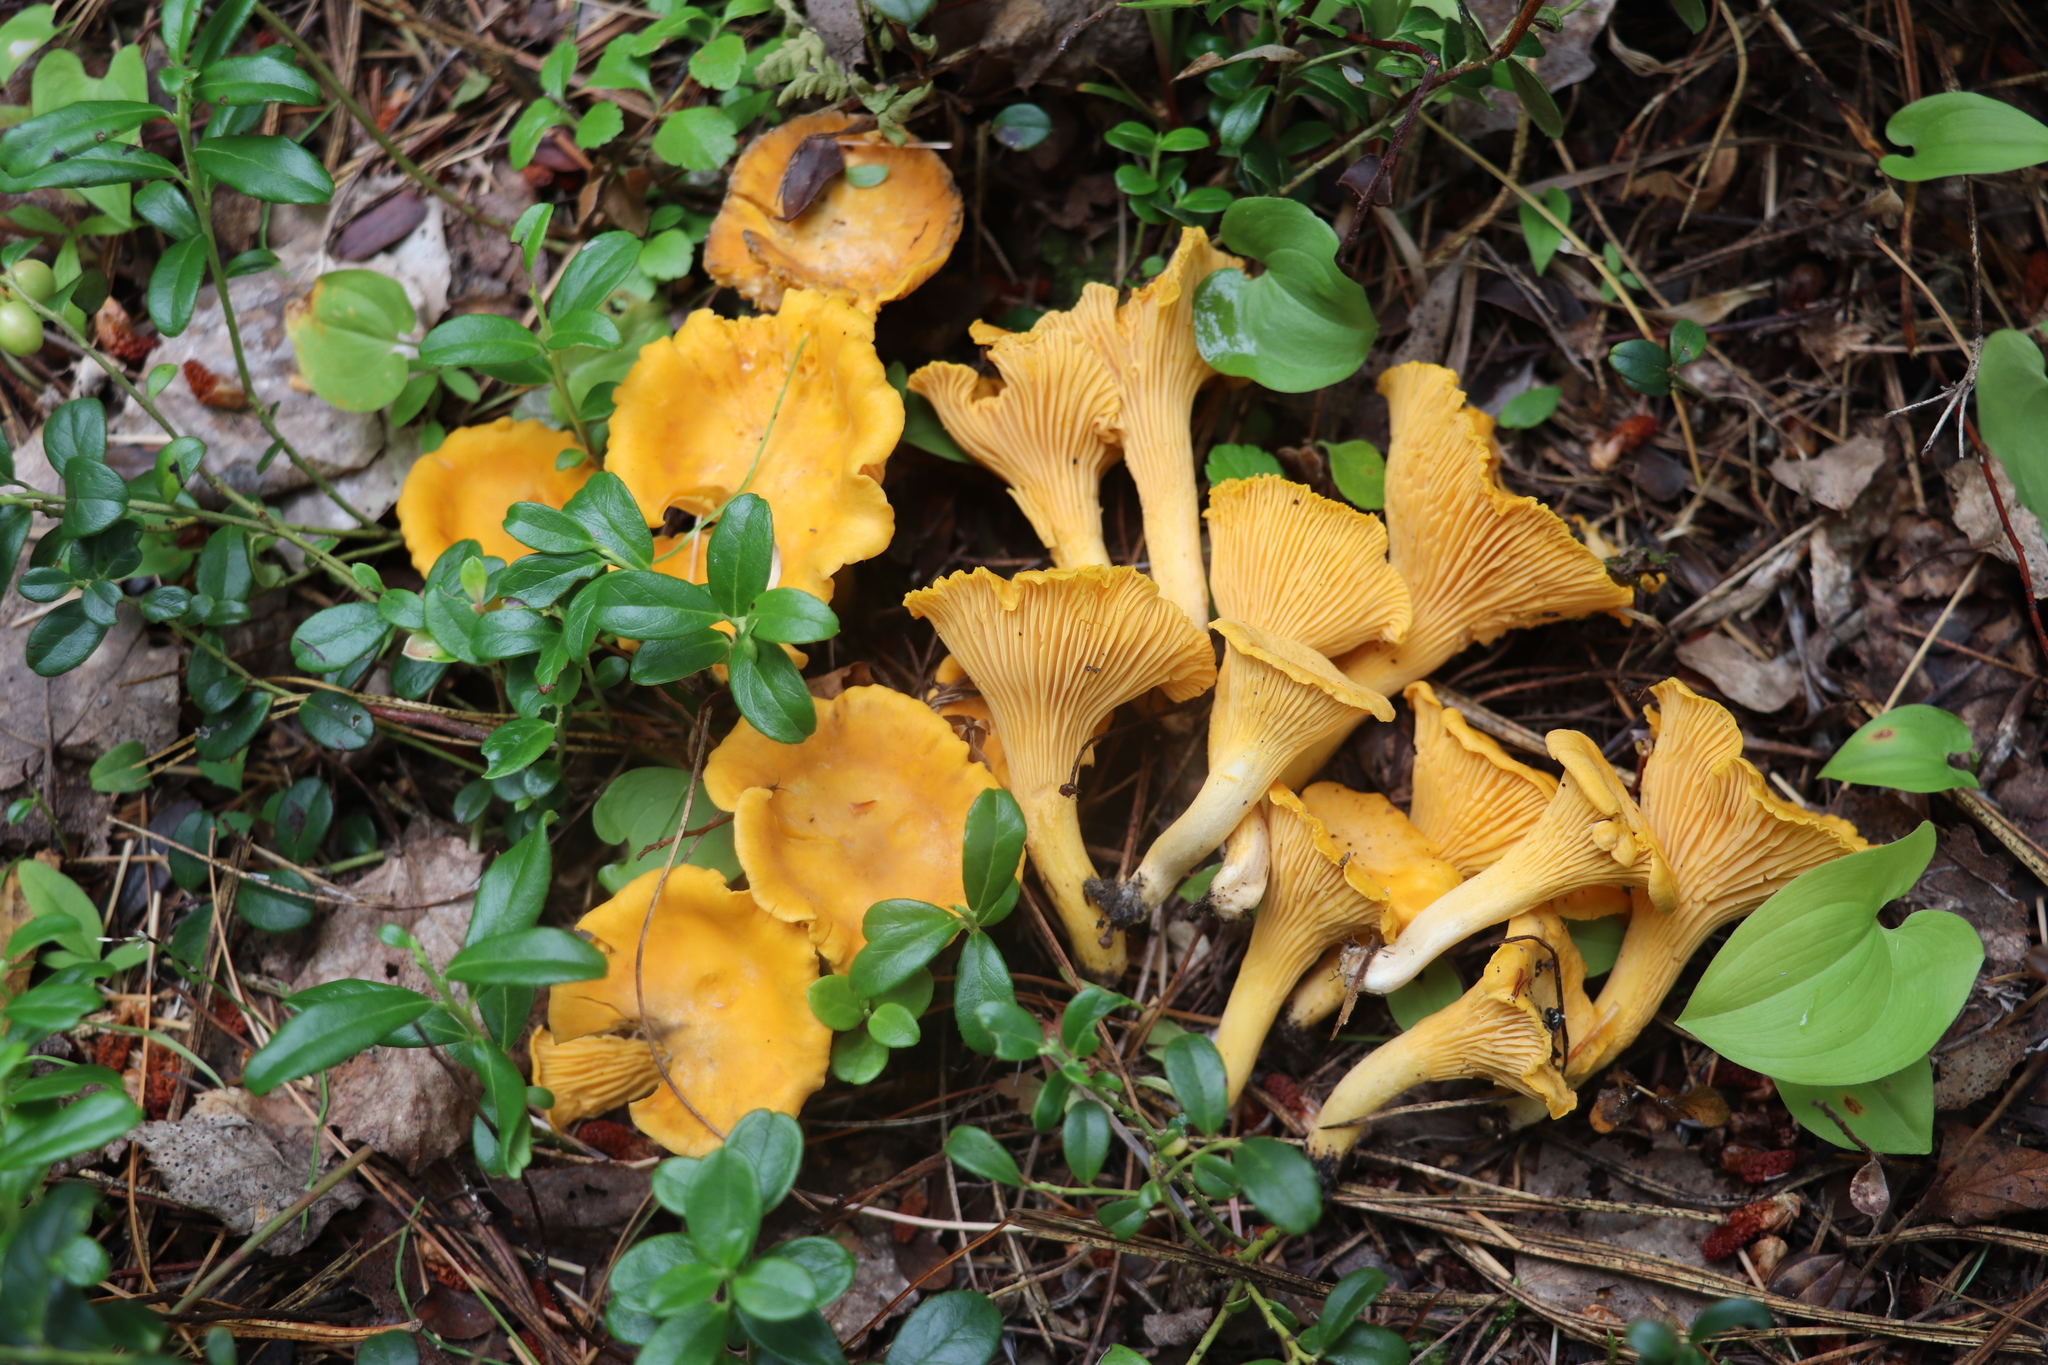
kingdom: Fungi
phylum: Basidiomycota
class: Agaricomycetes
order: Cantharellales
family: Hydnaceae
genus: Cantharellus
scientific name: Cantharellus cibarius
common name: Chanterelle
